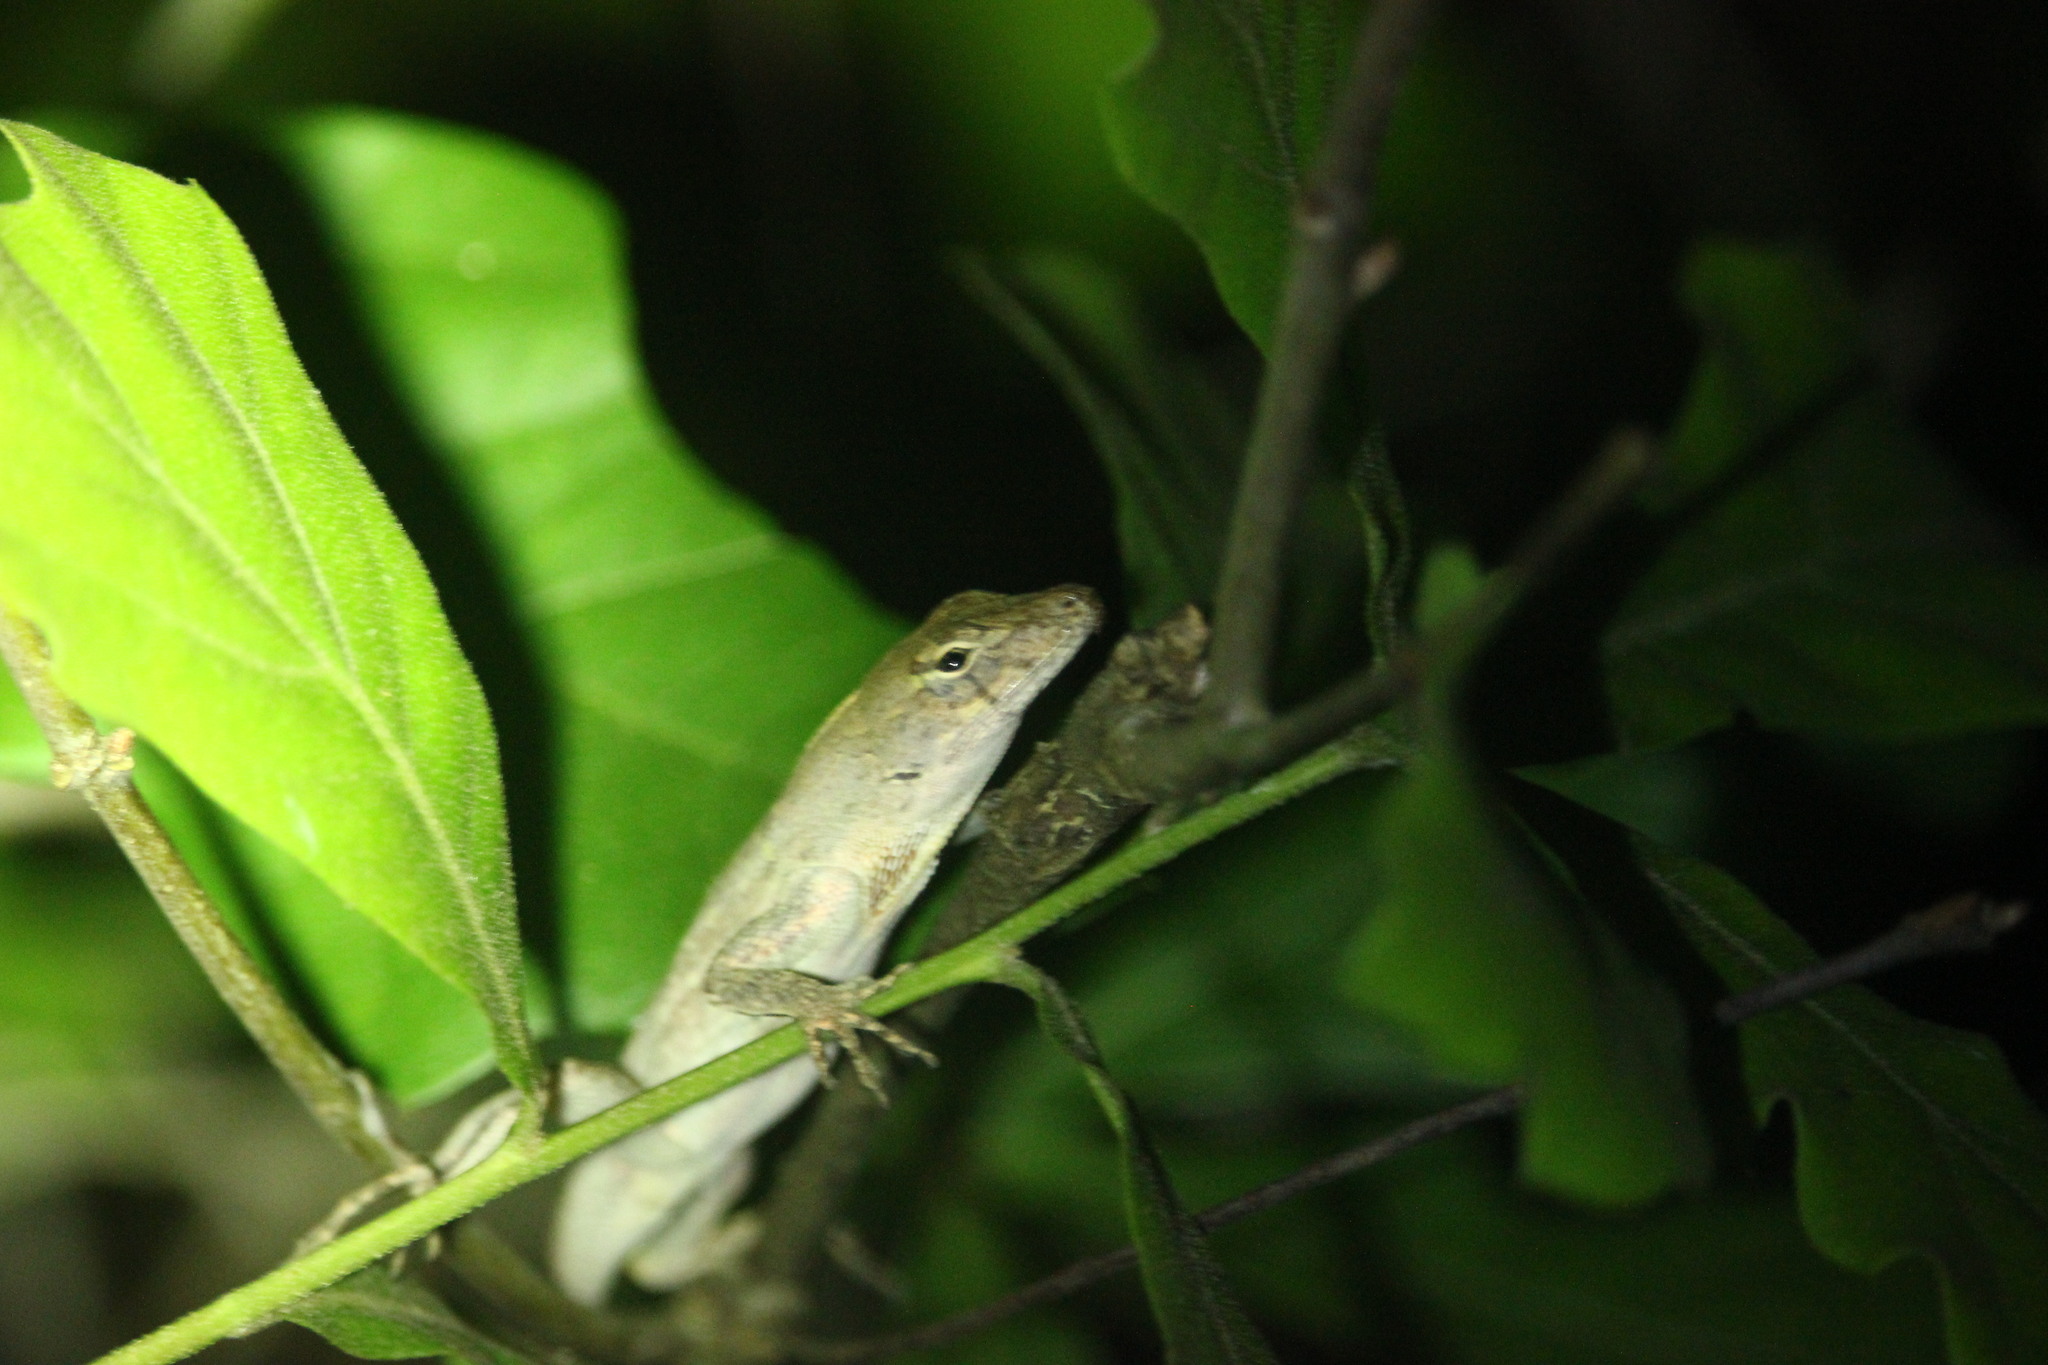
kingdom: Animalia
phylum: Chordata
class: Squamata
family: Dactyloidae
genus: Anolis
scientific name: Anolis sagrei
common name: Brown anole
